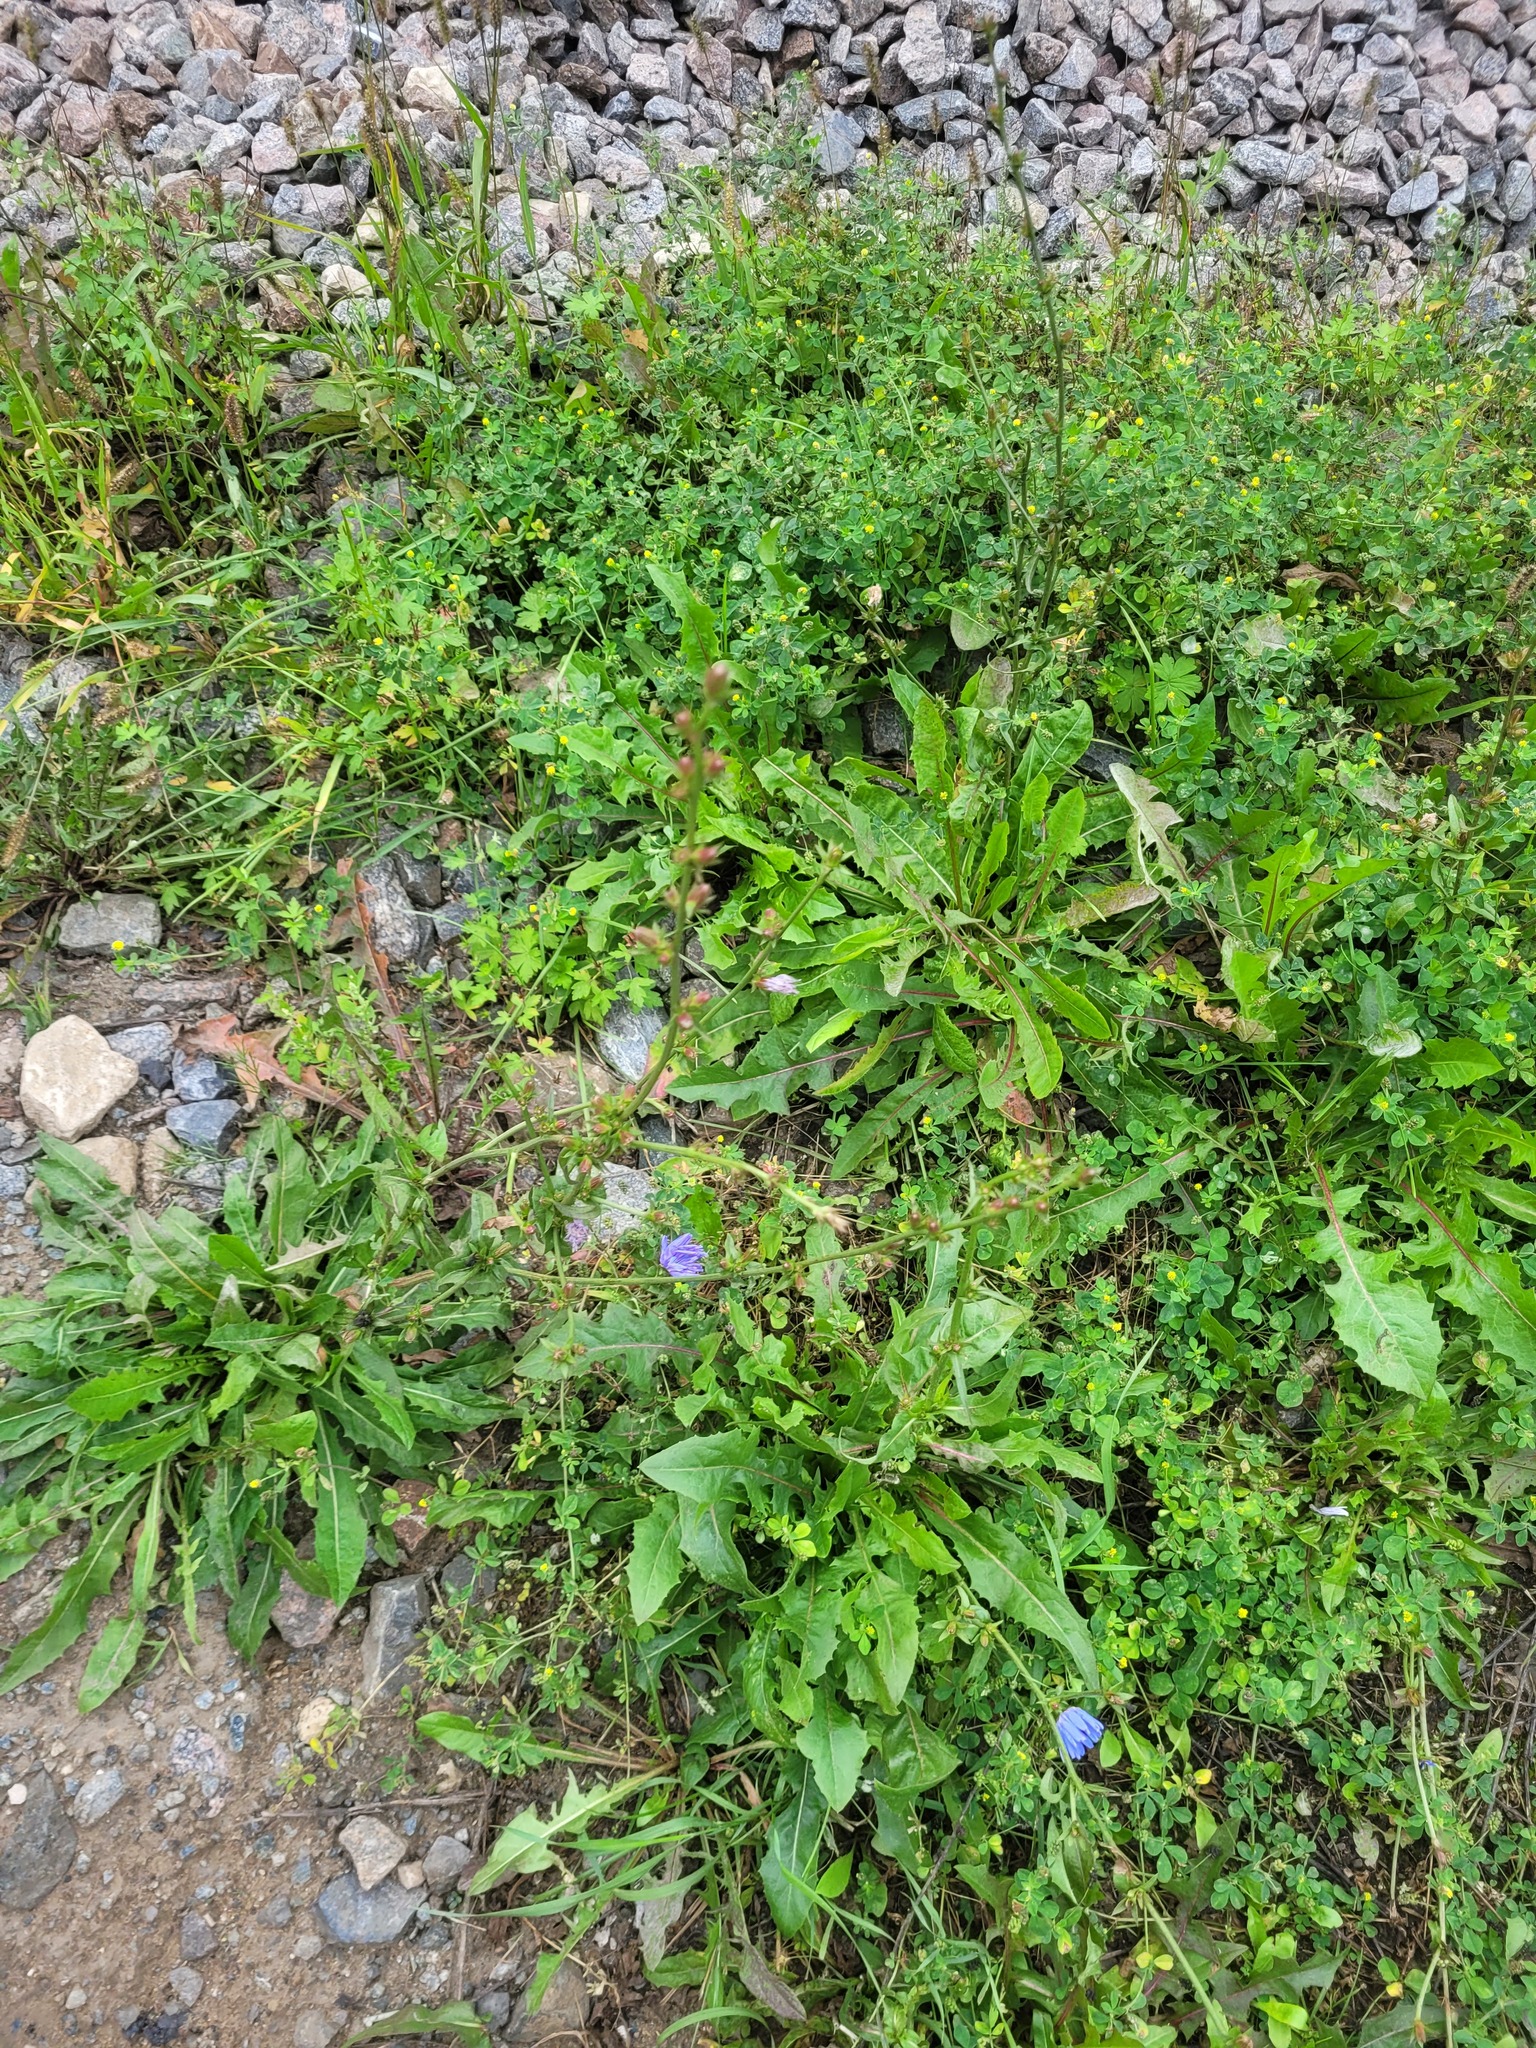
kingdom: Plantae
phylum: Tracheophyta
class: Magnoliopsida
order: Asterales
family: Asteraceae
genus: Cichorium
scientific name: Cichorium intybus
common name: Chicory
